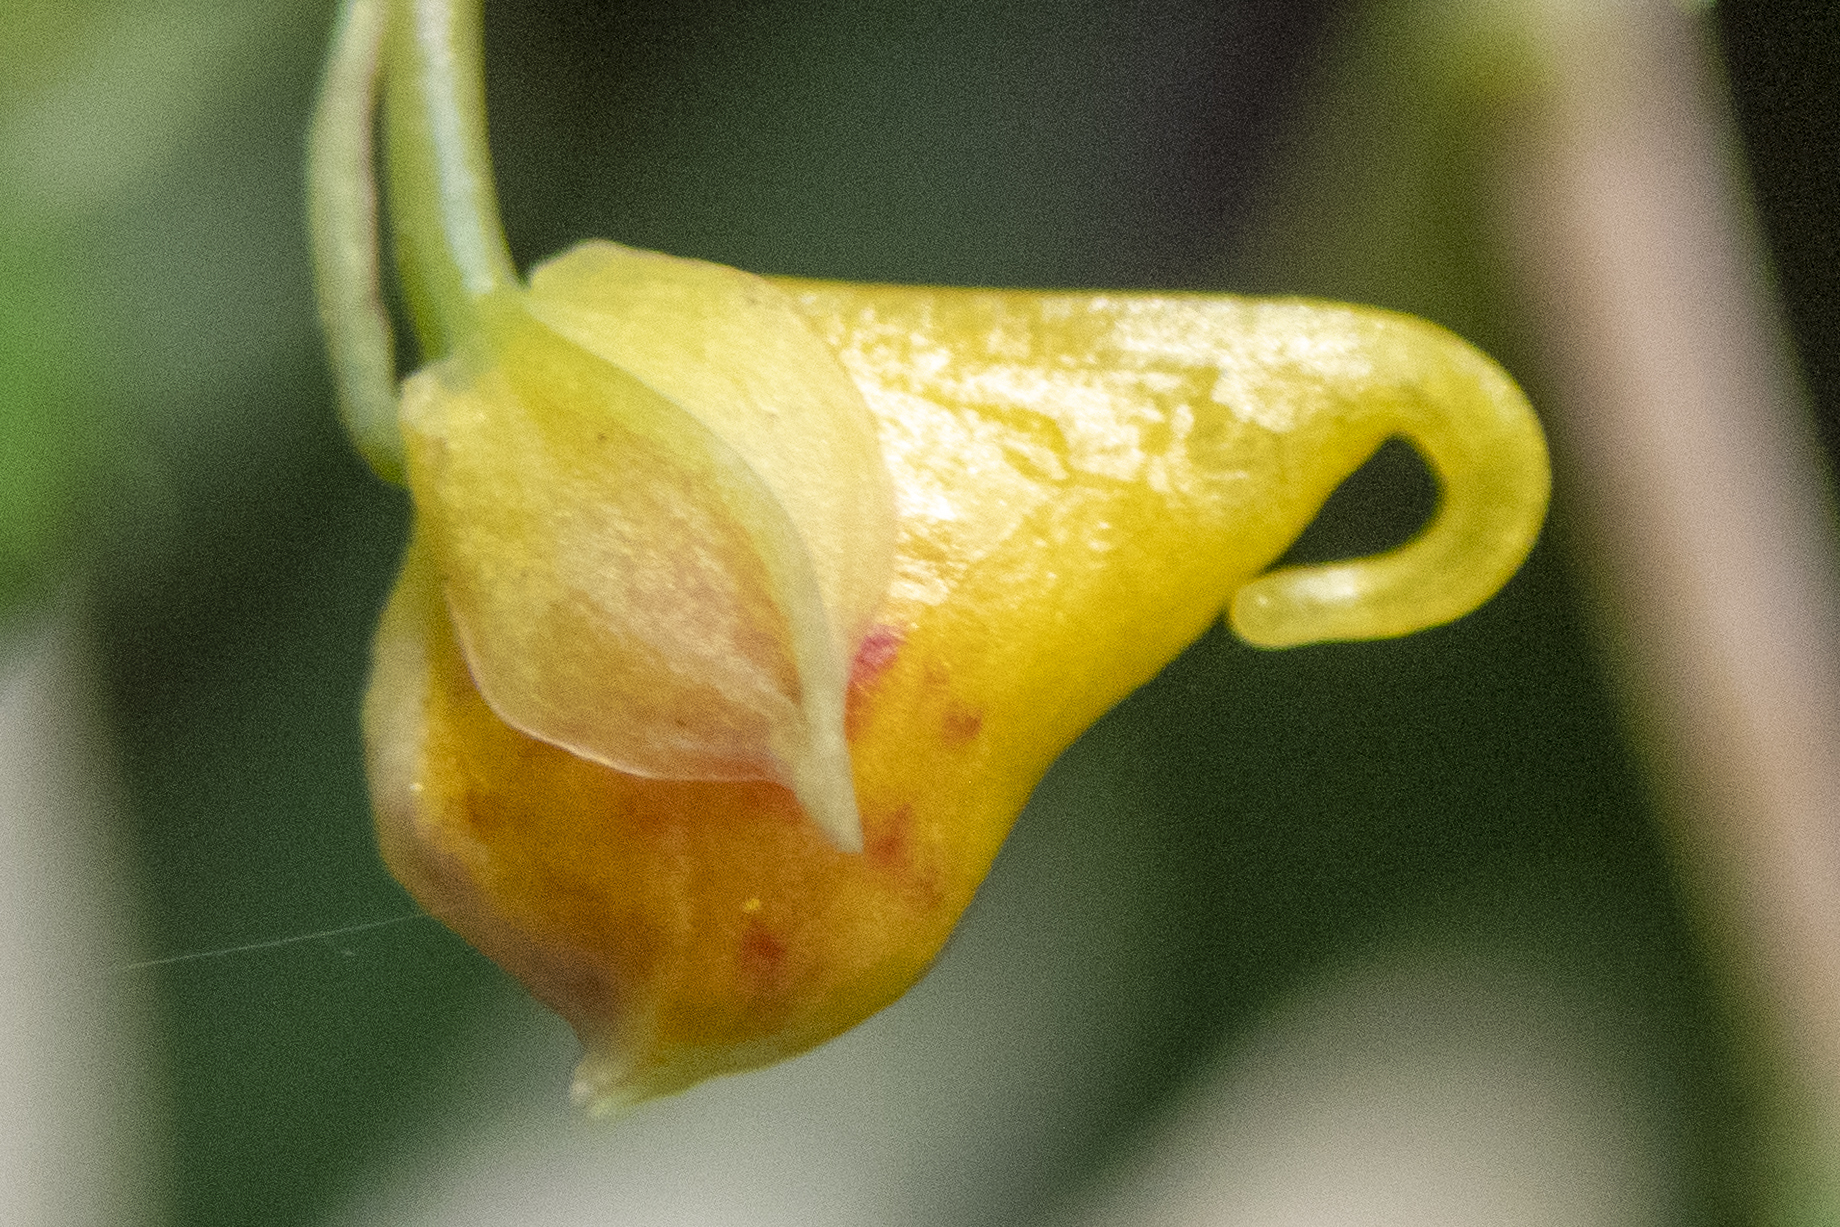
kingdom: Plantae
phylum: Tracheophyta
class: Magnoliopsida
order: Ericales
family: Balsaminaceae
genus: Impatiens
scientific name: Impatiens capensis
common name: Orange balsam
